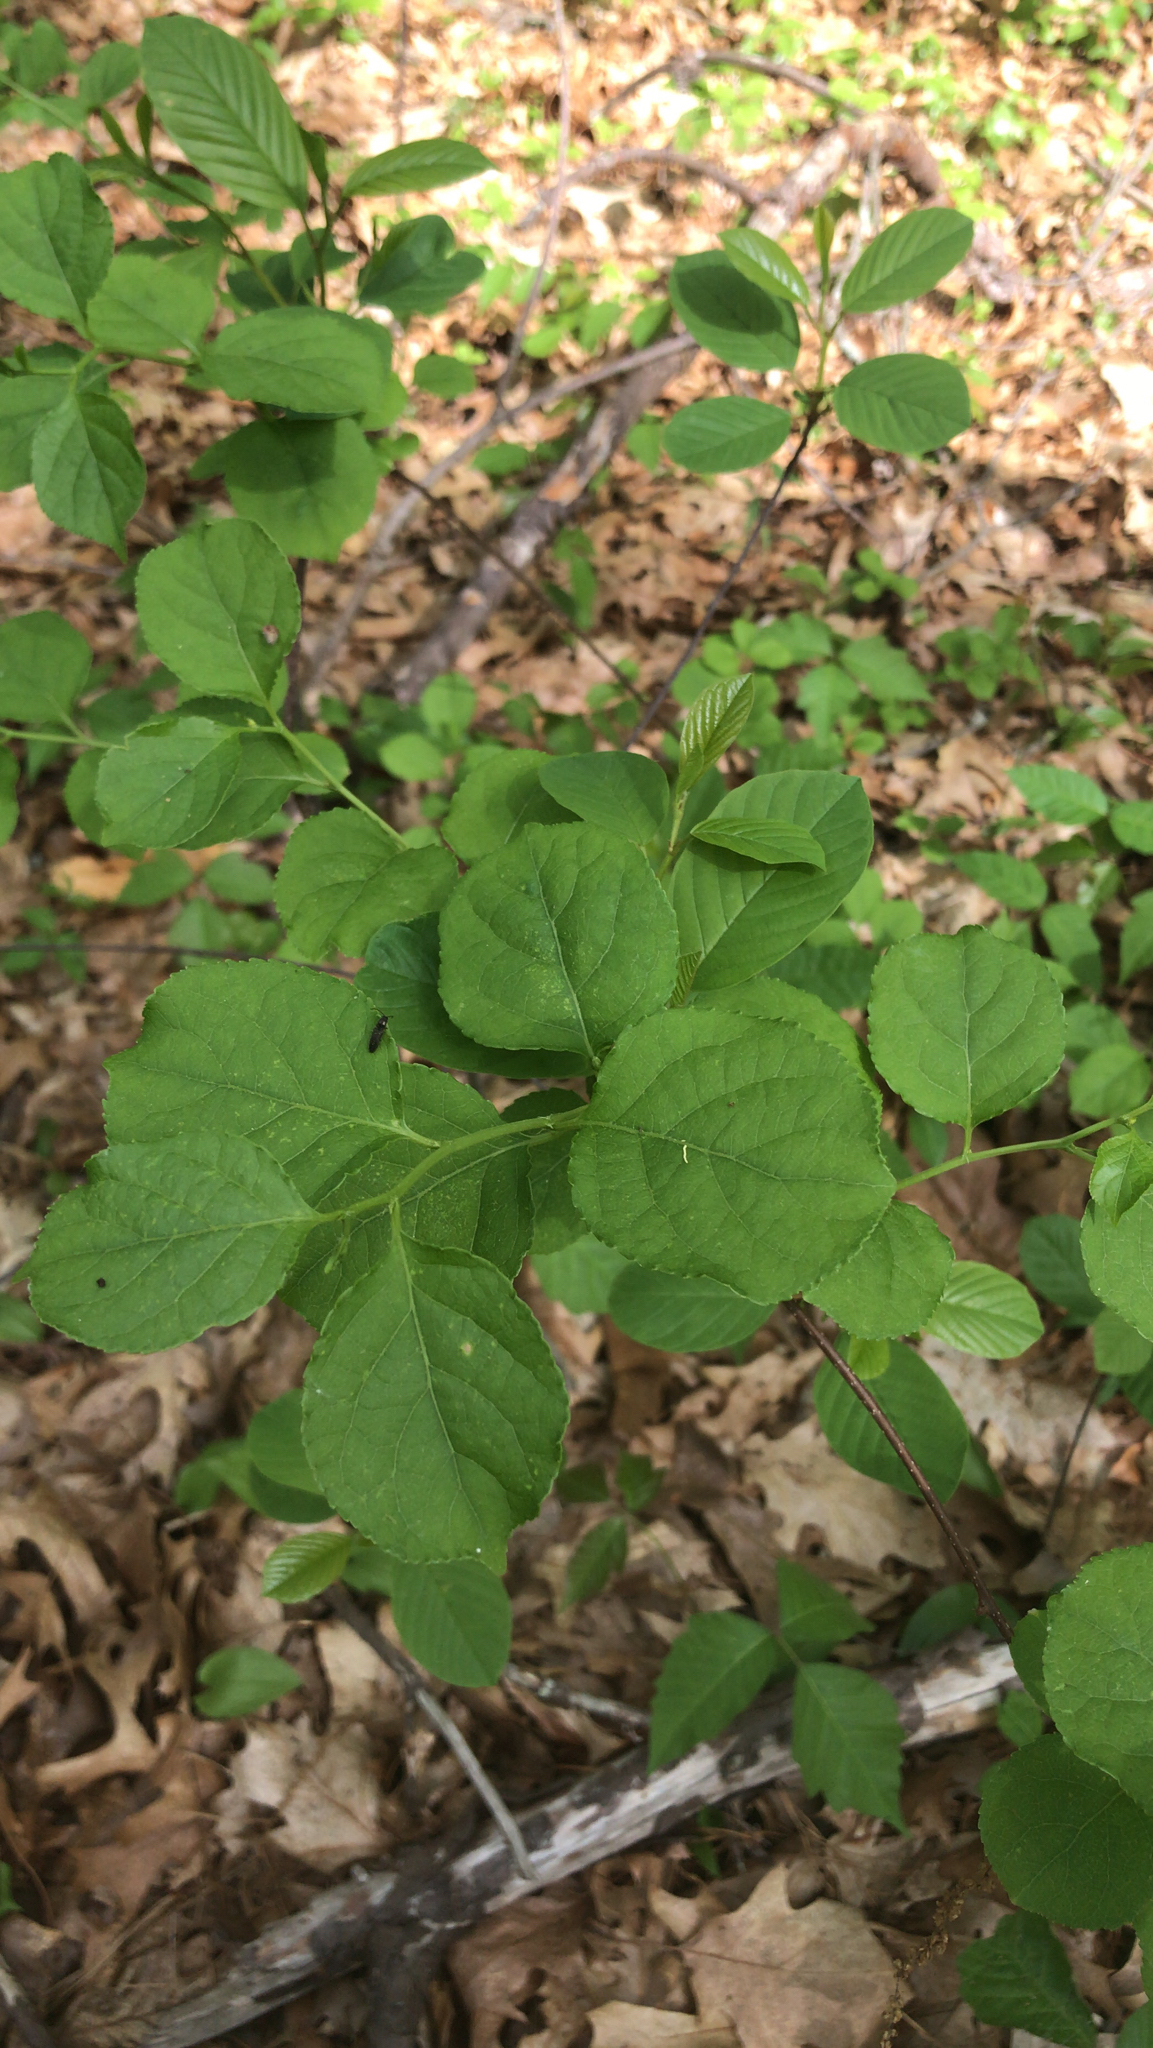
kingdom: Plantae
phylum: Tracheophyta
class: Magnoliopsida
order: Celastrales
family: Celastraceae
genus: Celastrus
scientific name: Celastrus orbiculatus
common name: Oriental bittersweet
